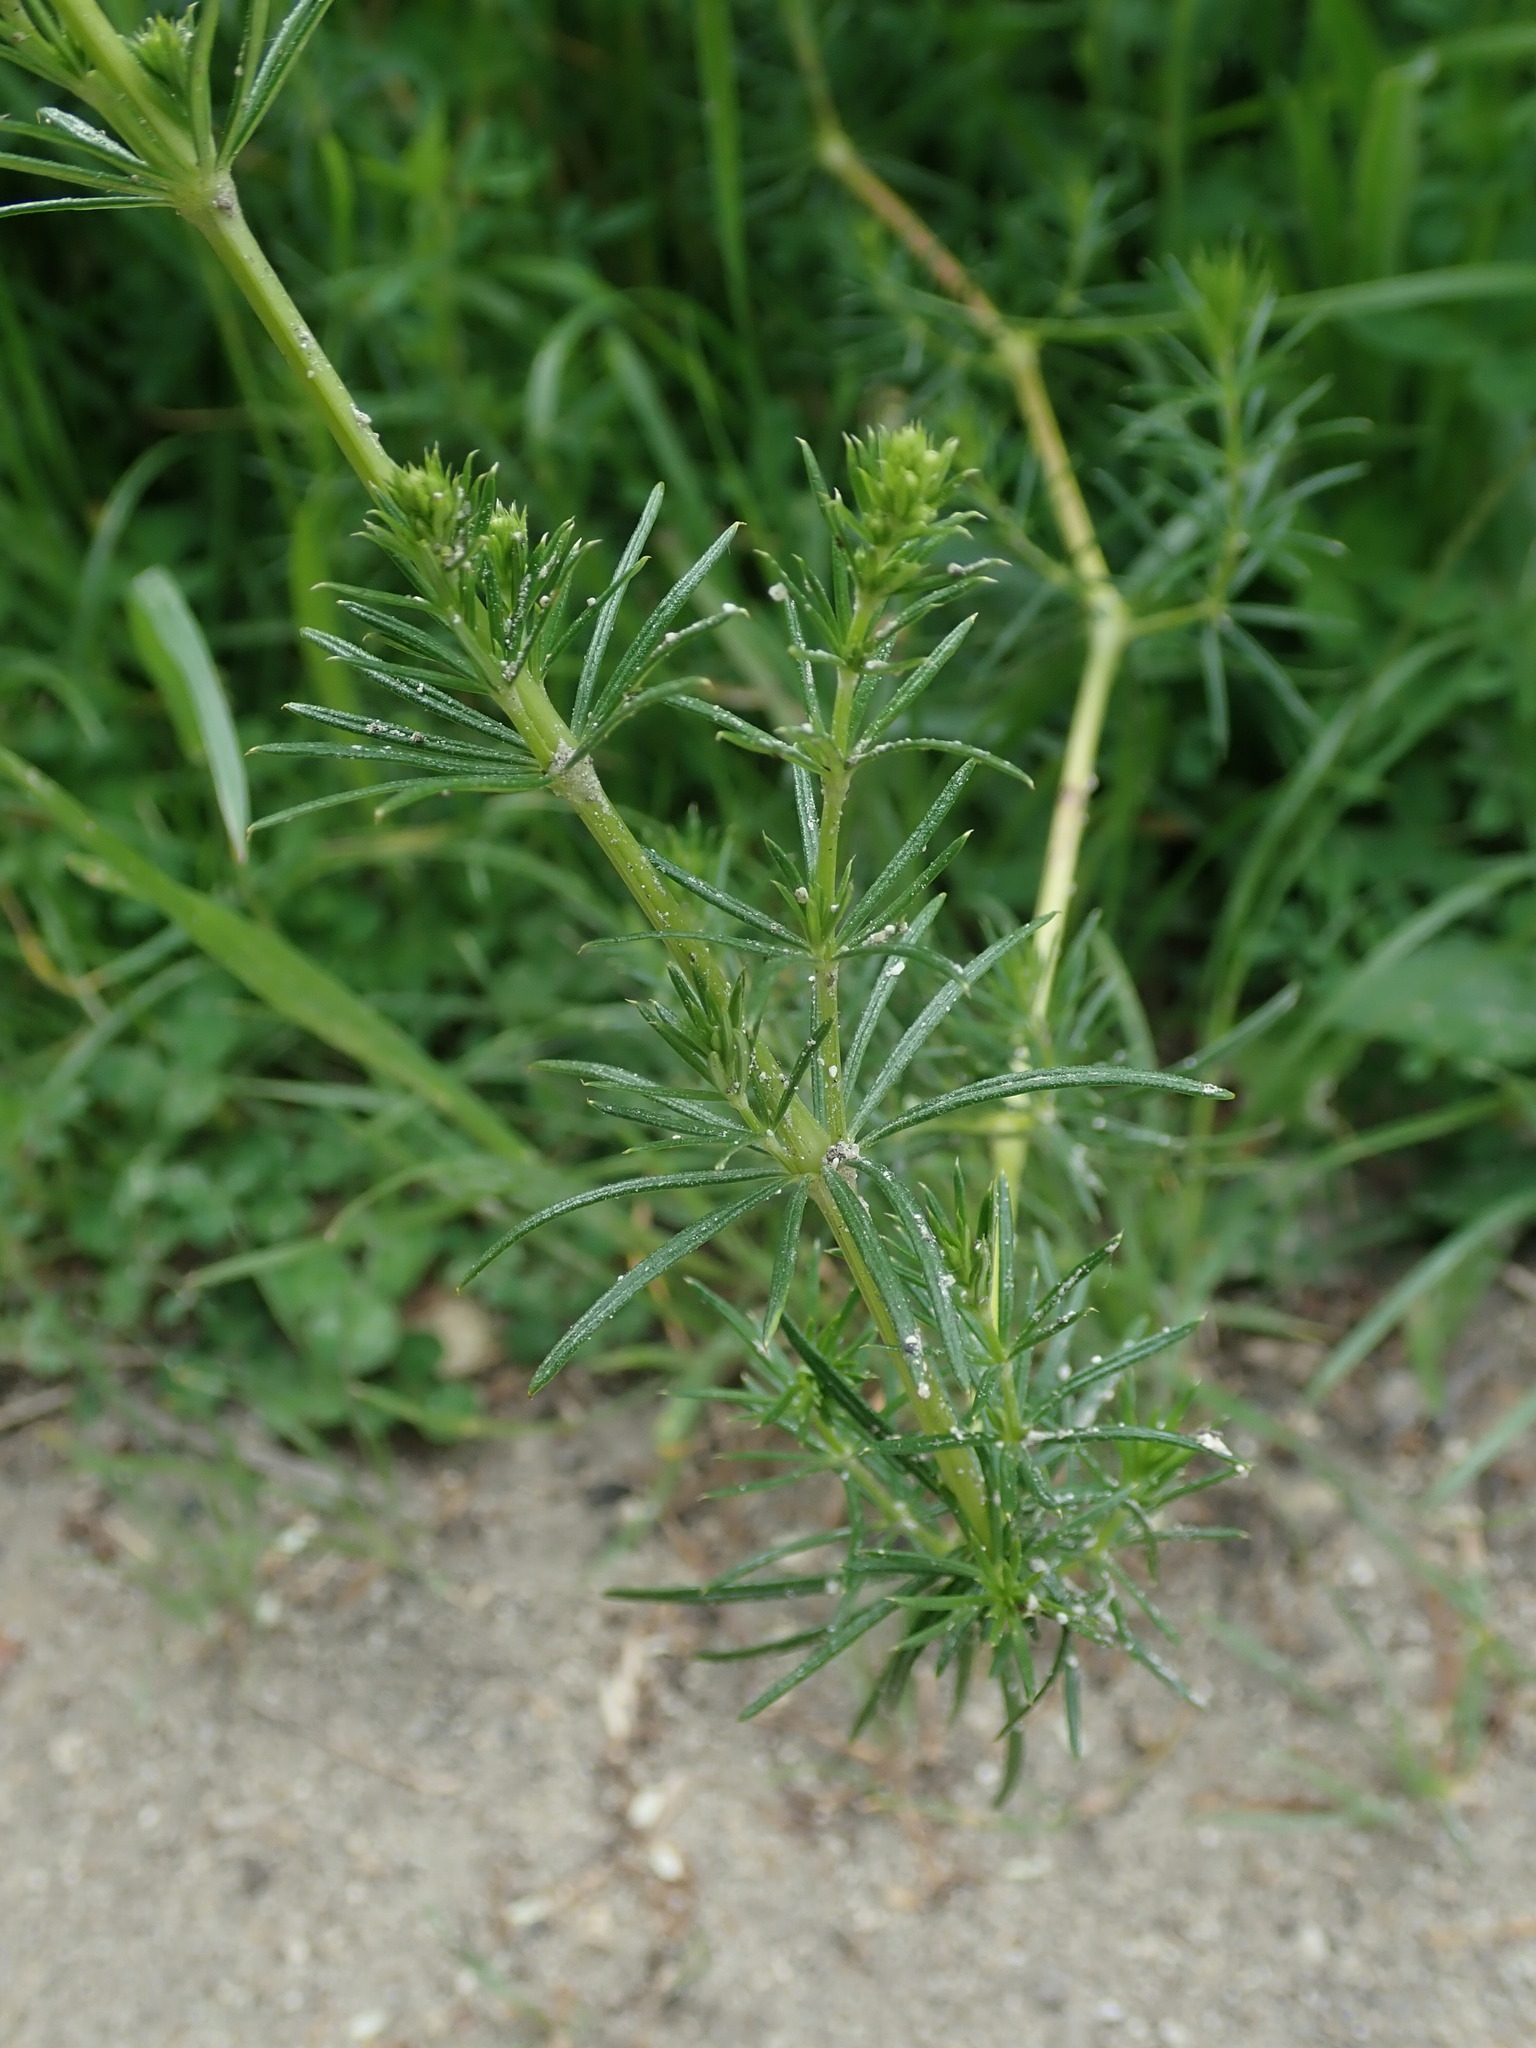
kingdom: Plantae
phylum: Tracheophyta
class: Magnoliopsida
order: Gentianales
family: Rubiaceae
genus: Galium
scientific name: Galium verum
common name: Lady's bedstraw
